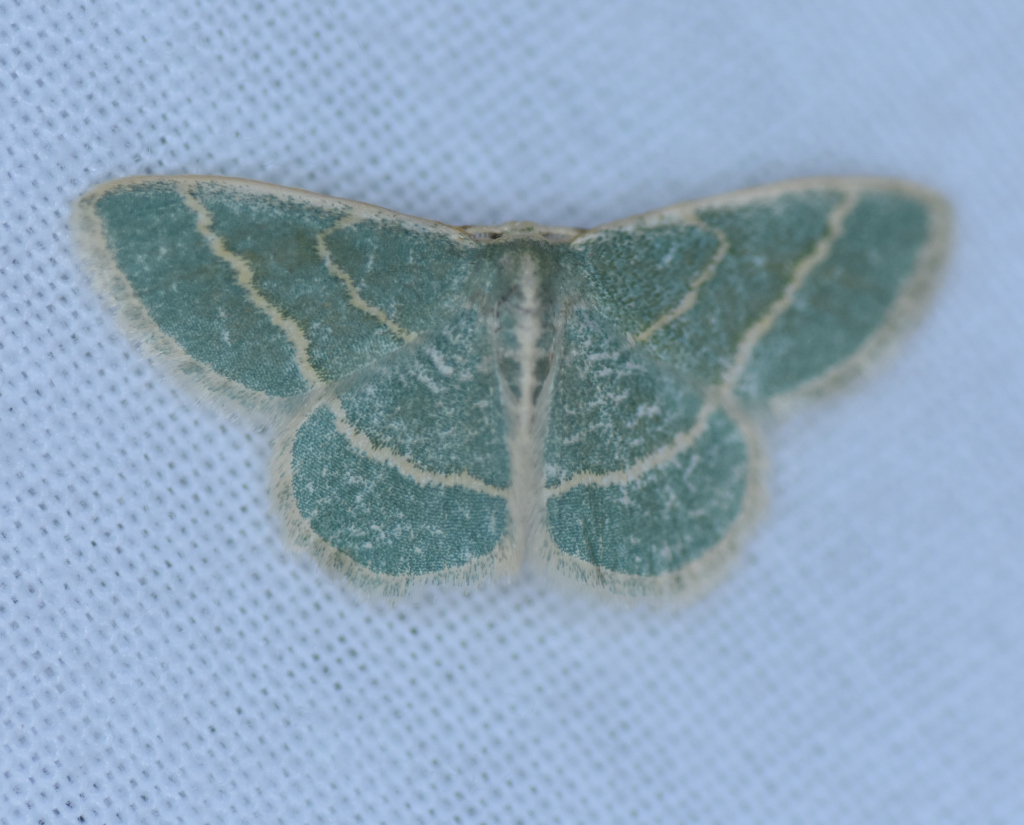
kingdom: Animalia
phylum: Arthropoda
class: Insecta
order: Lepidoptera
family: Geometridae
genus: Chlorochlamys
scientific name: Chlorochlamys chloroleucaria
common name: Blackberry looper
